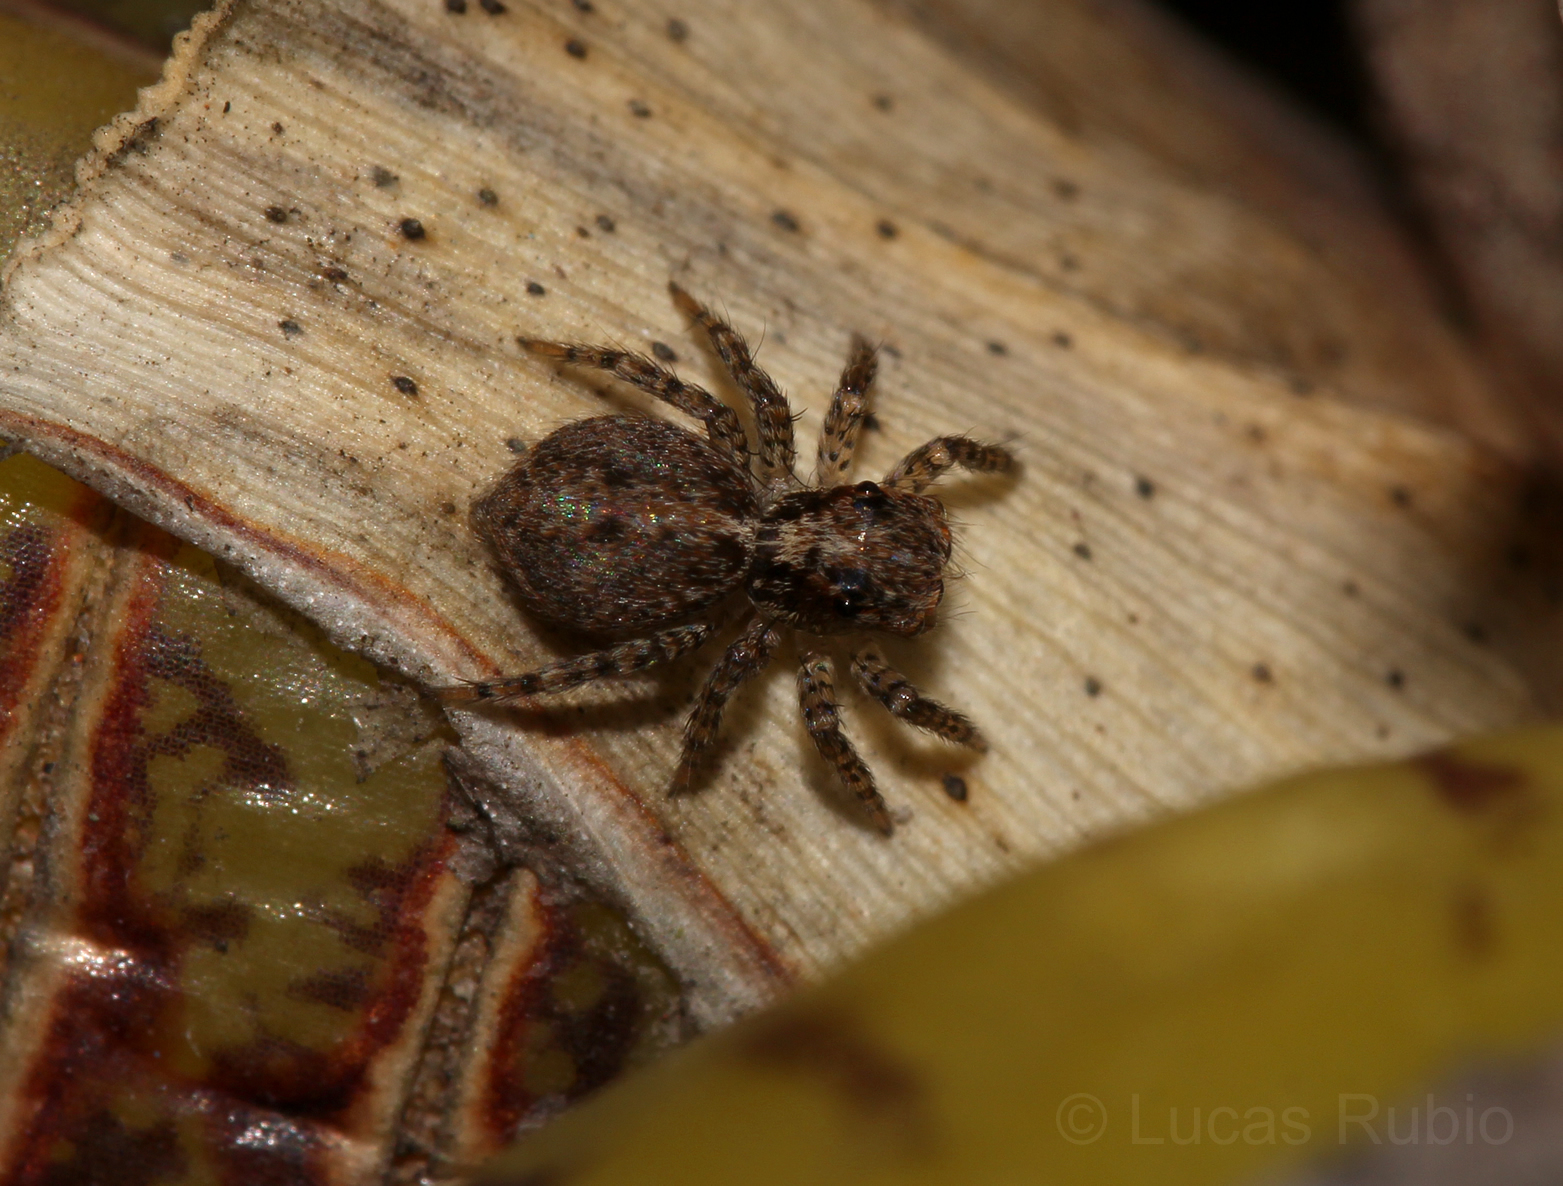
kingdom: Animalia
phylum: Arthropoda
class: Arachnida
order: Araneae
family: Salticidae
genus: Saitis
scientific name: Saitis variegatus
